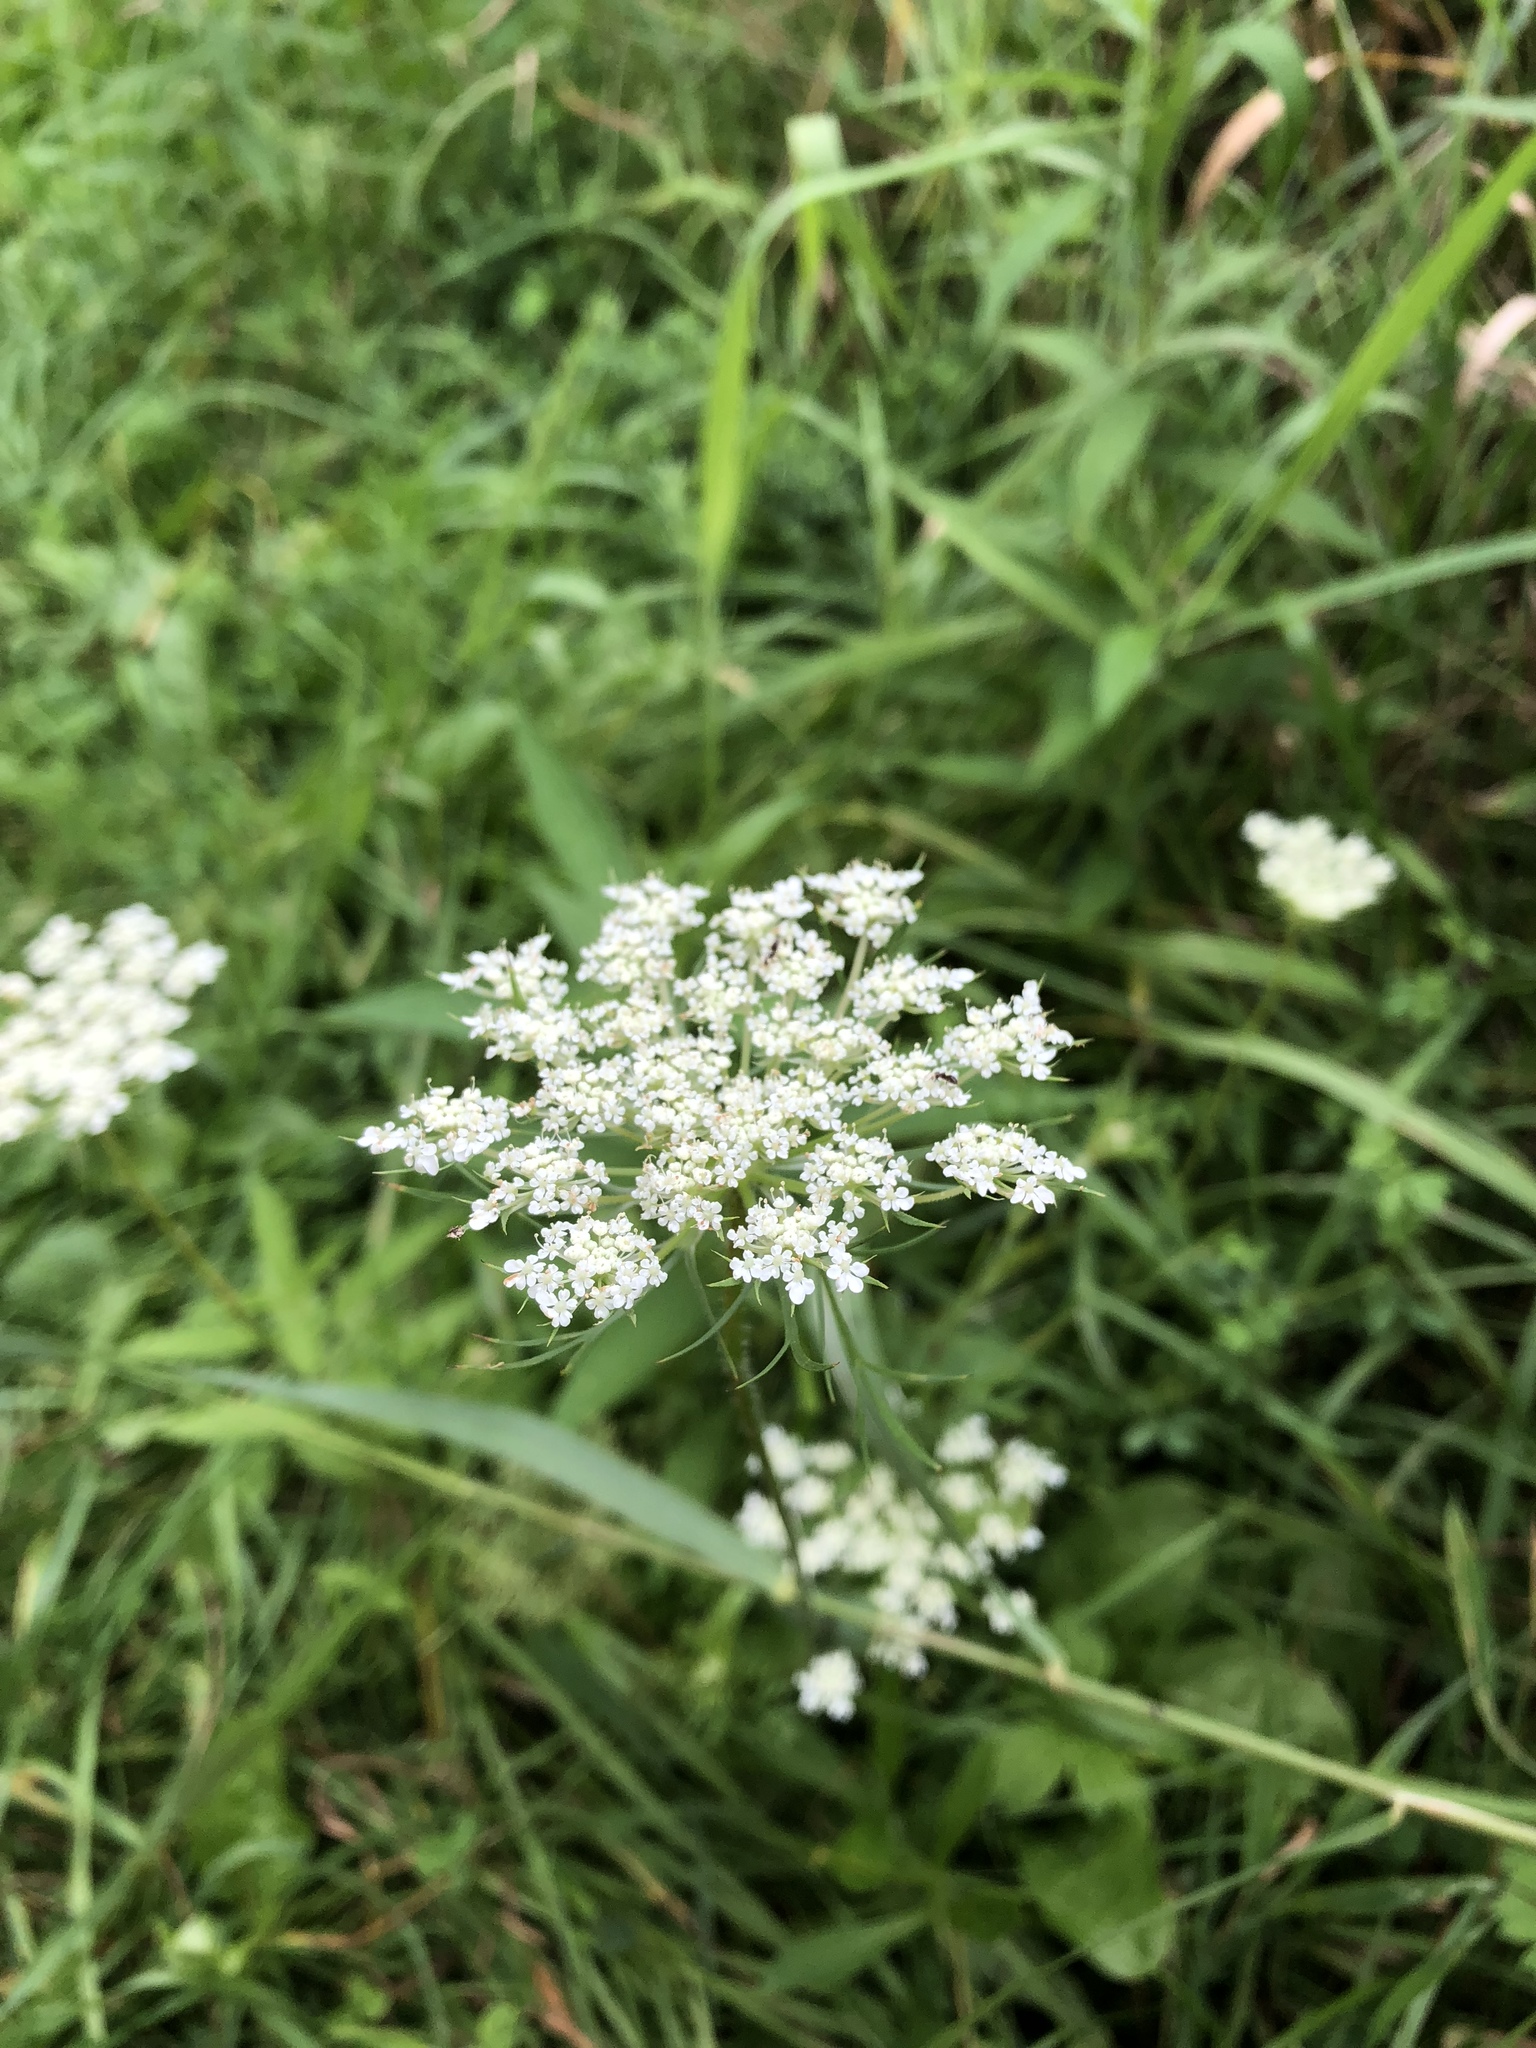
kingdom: Plantae
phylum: Tracheophyta
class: Magnoliopsida
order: Apiales
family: Apiaceae
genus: Daucus
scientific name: Daucus carota
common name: Wild carrot
